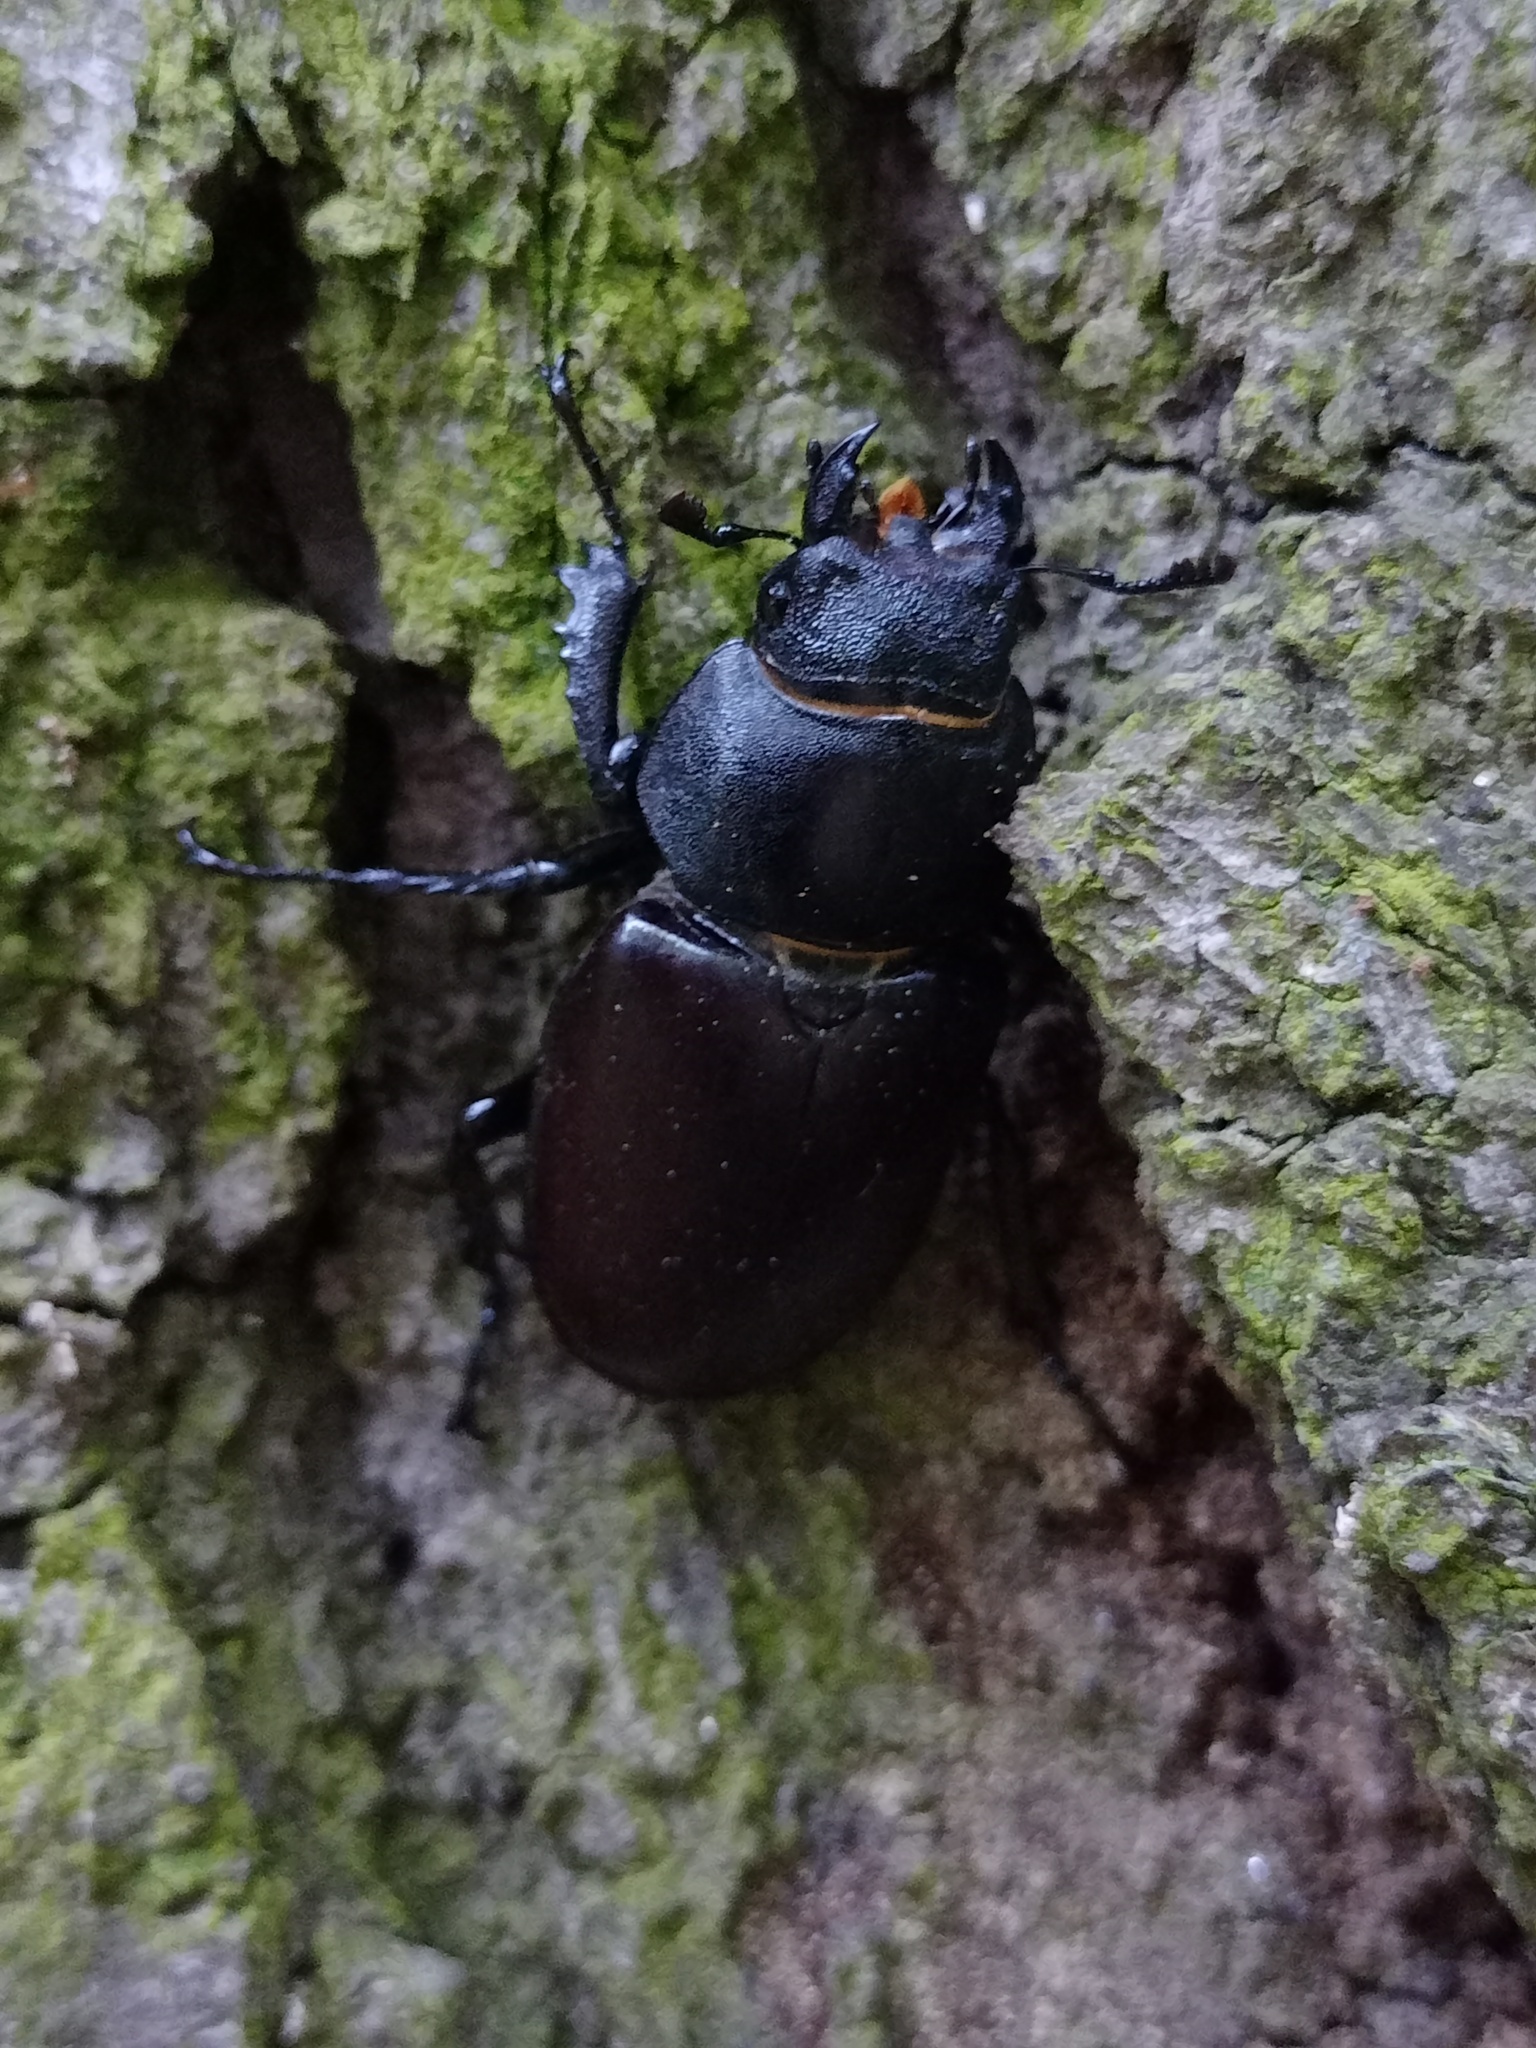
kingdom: Animalia
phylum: Arthropoda
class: Insecta
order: Coleoptera
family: Lucanidae
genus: Lucanus
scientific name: Lucanus cervus
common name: Stag beetle
